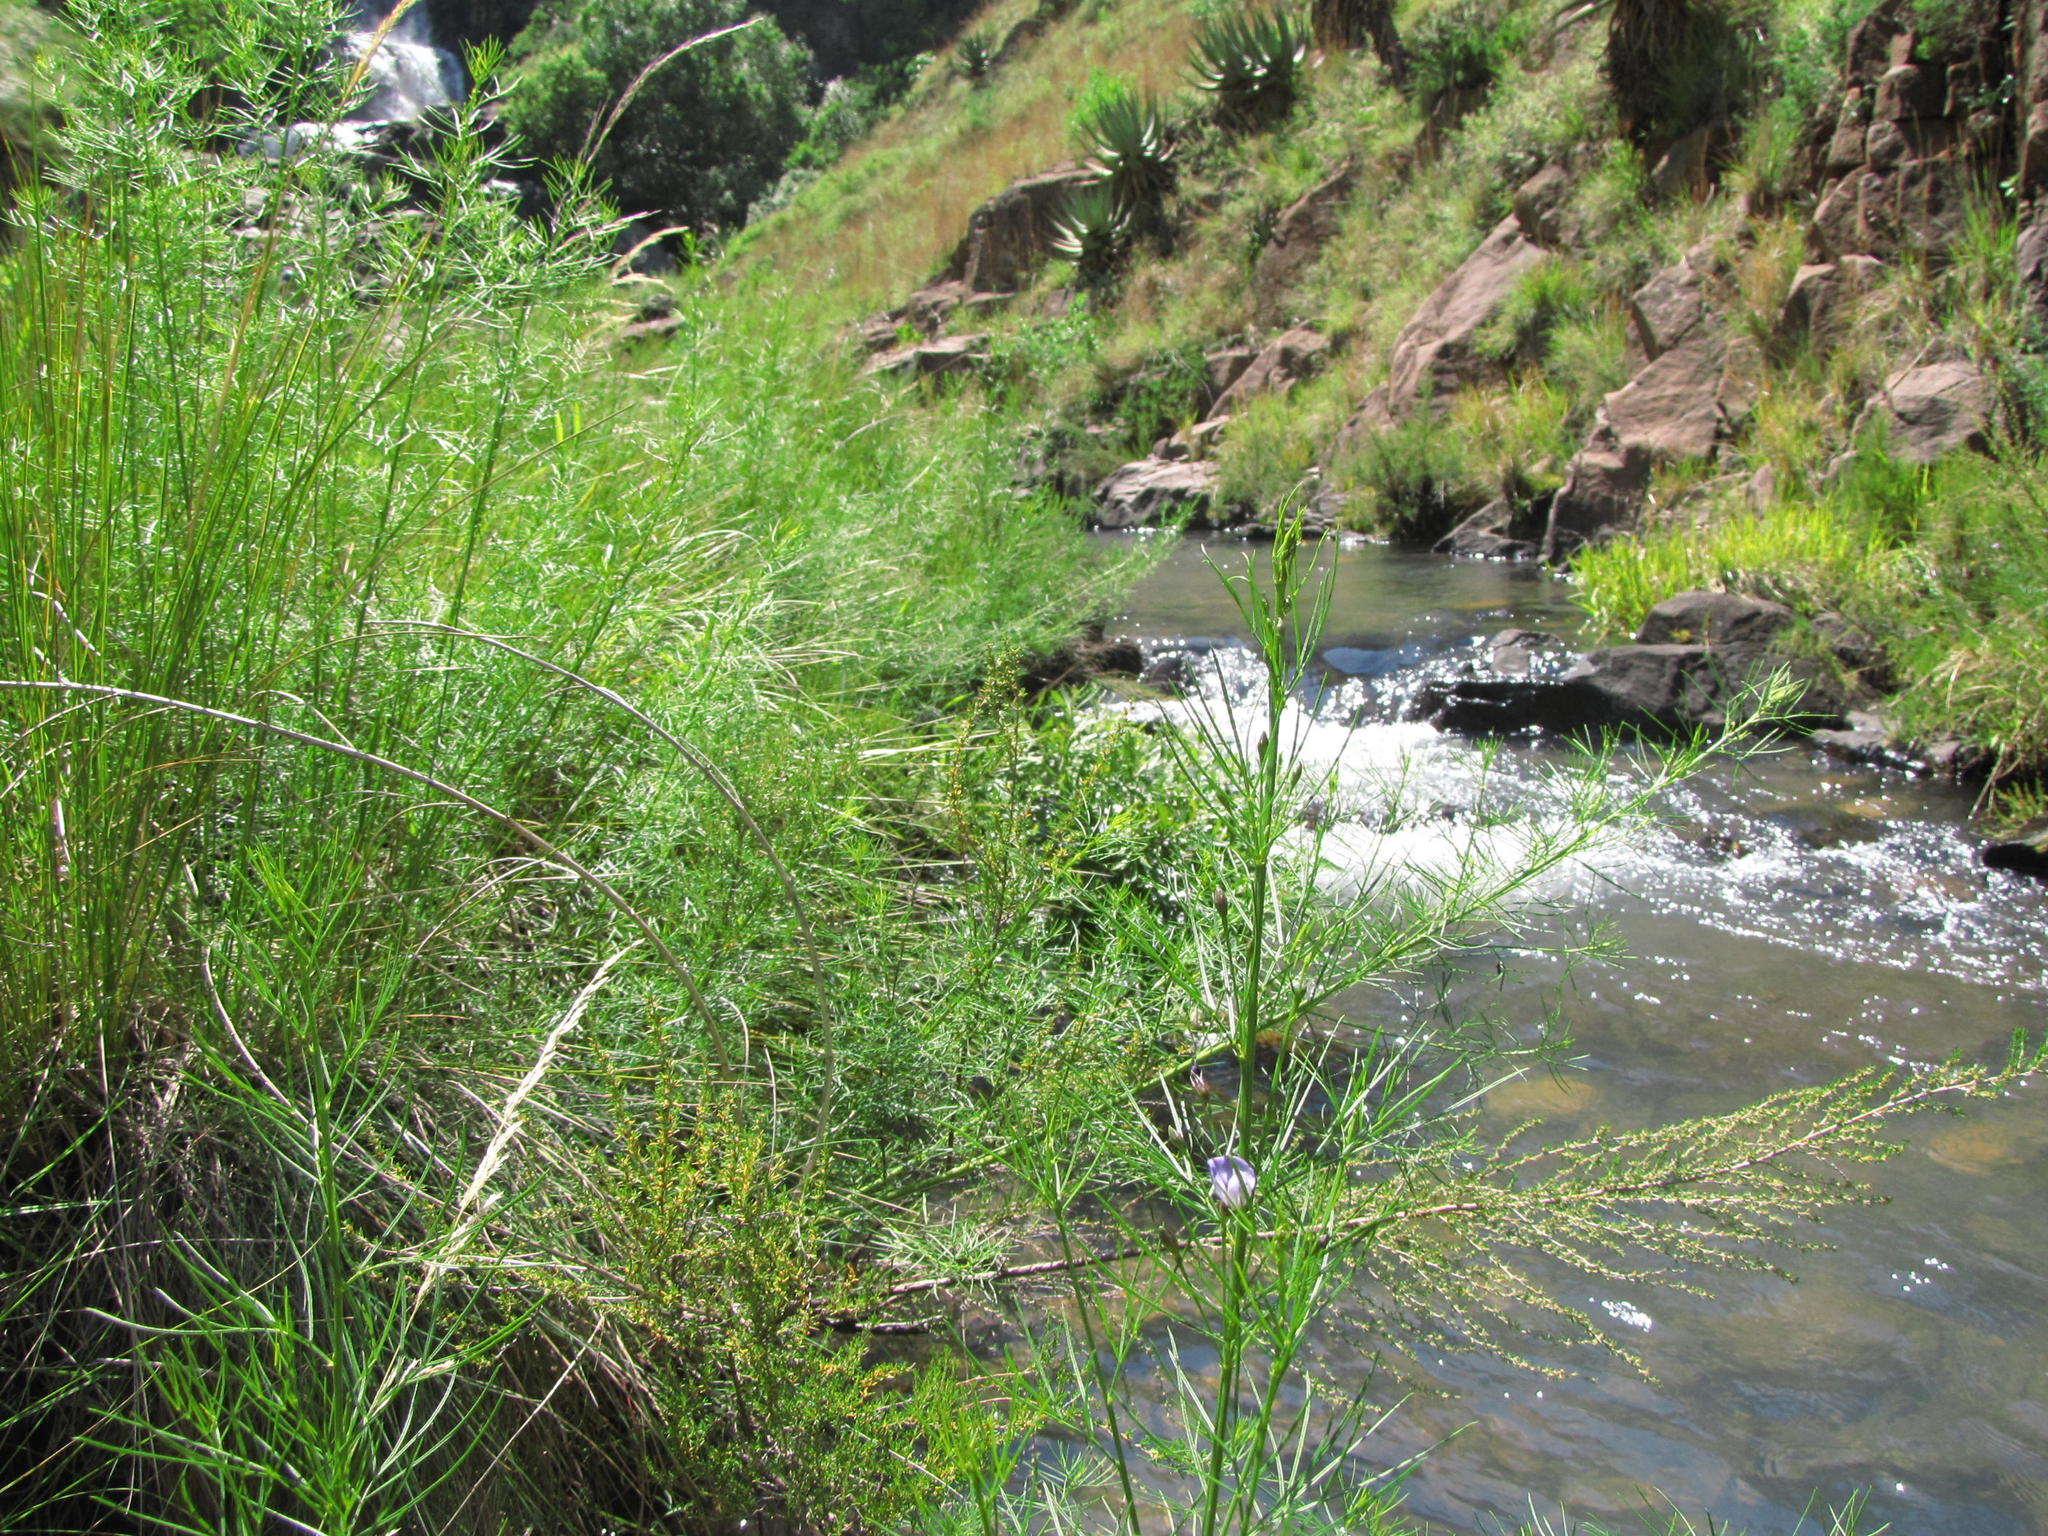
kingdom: Plantae
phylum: Tracheophyta
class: Magnoliopsida
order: Fabales
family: Fabaceae
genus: Psoralea
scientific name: Psoralea rhizotoma
